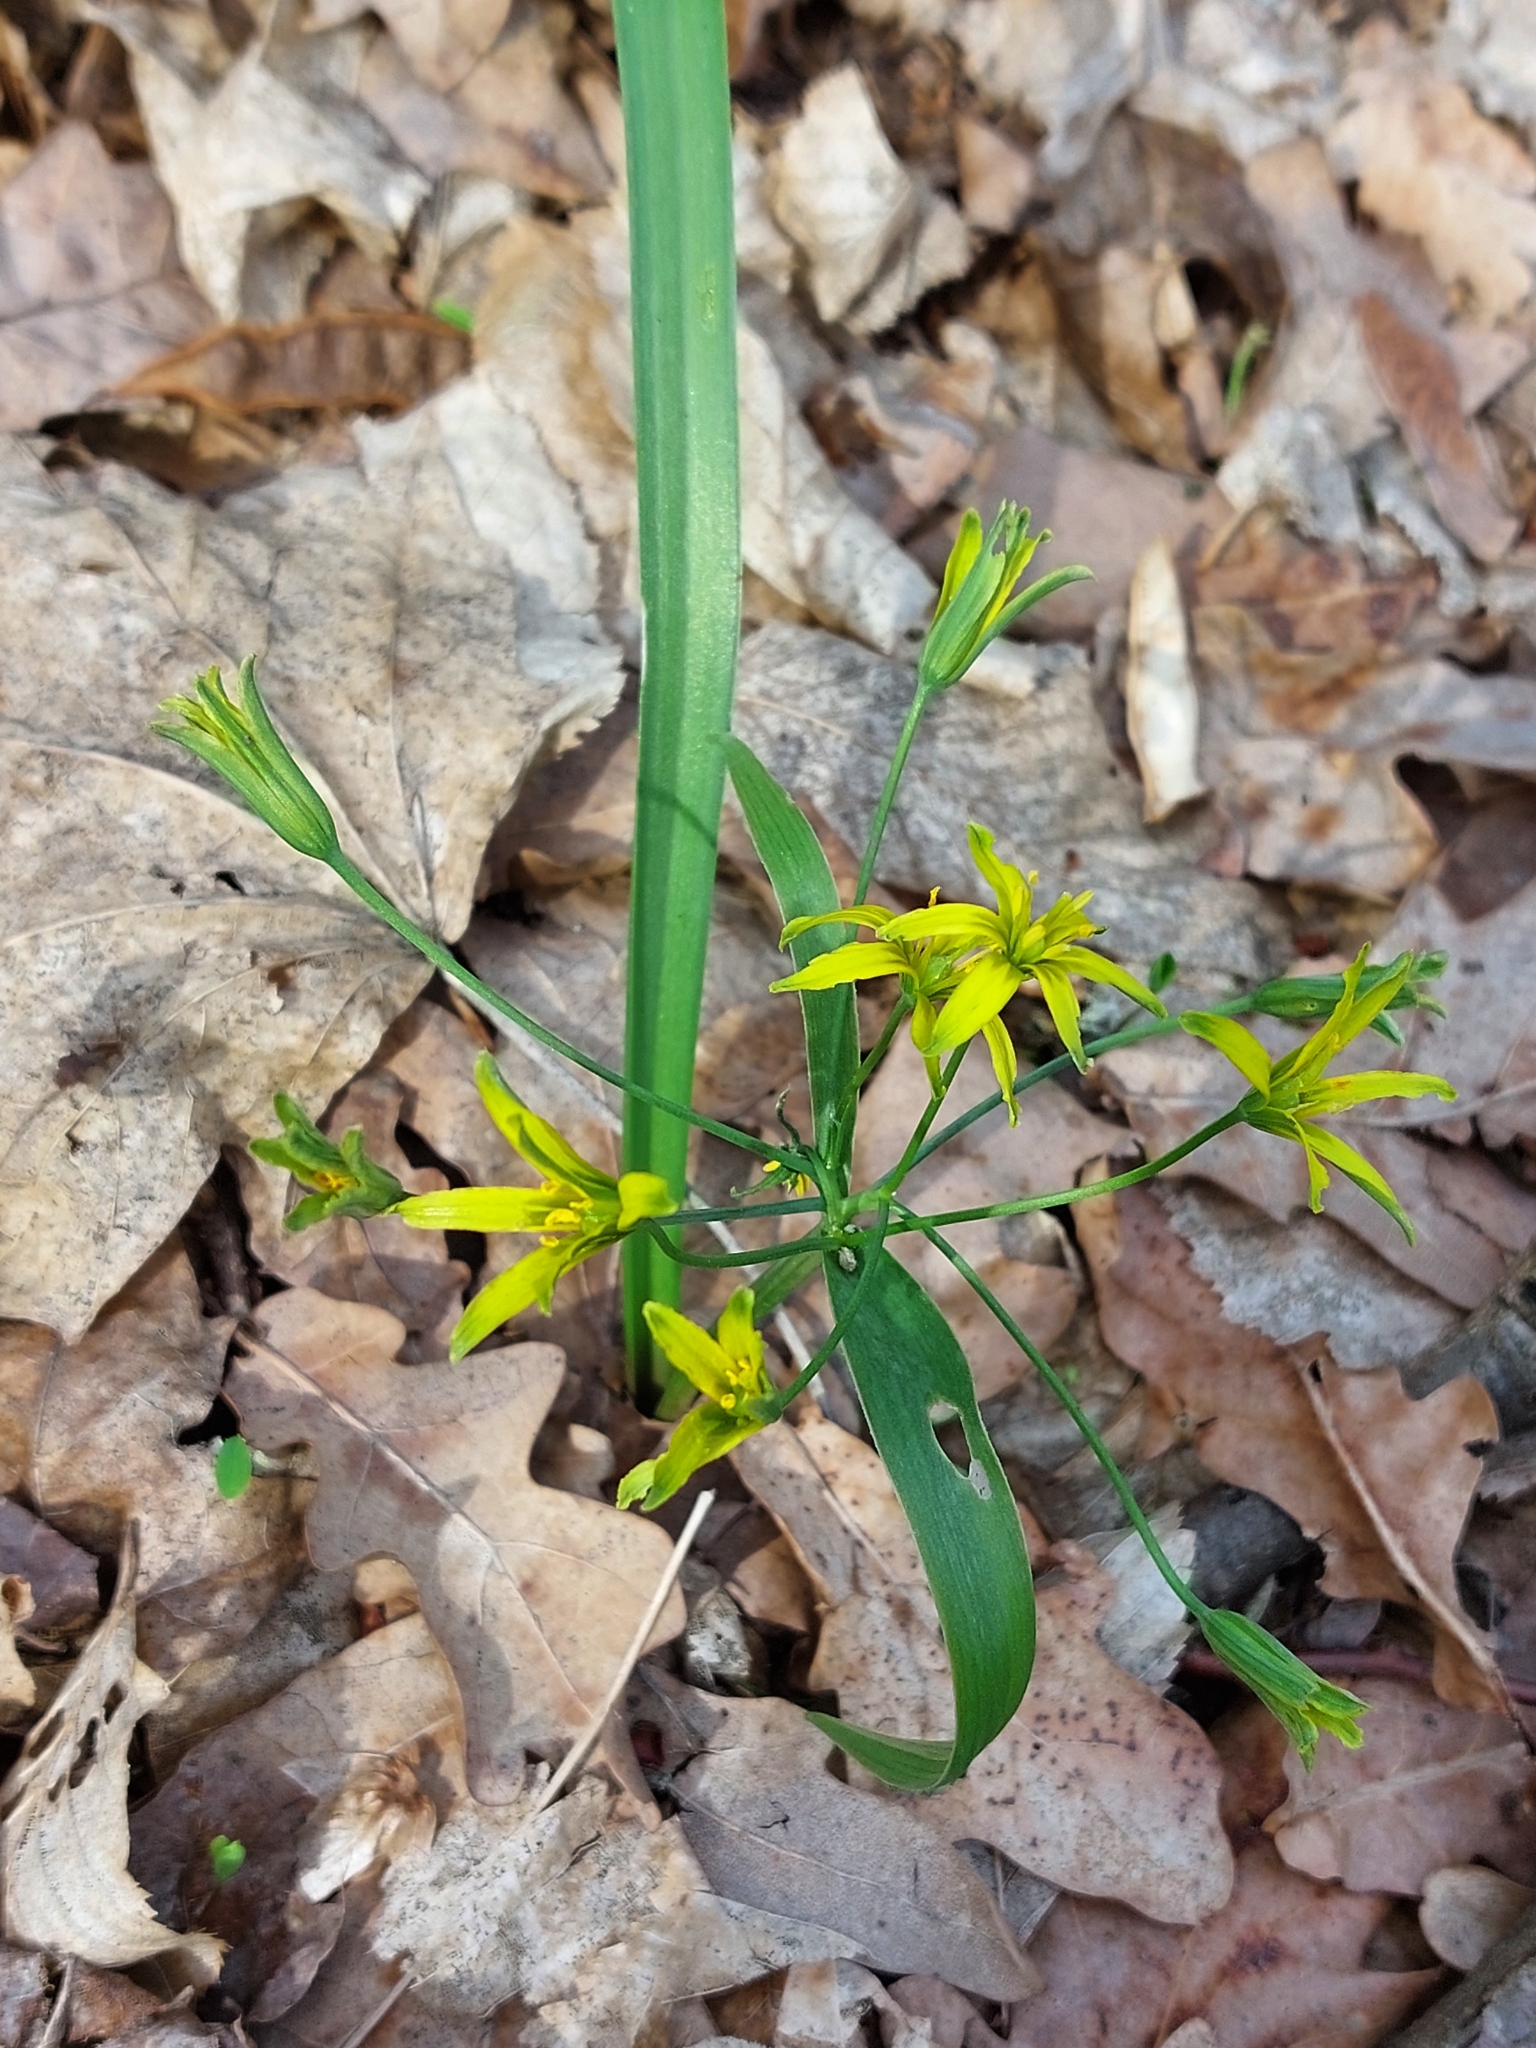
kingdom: Plantae
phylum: Tracheophyta
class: Liliopsida
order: Liliales
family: Liliaceae
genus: Gagea
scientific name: Gagea lutea
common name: Yellow star-of-bethlehem
